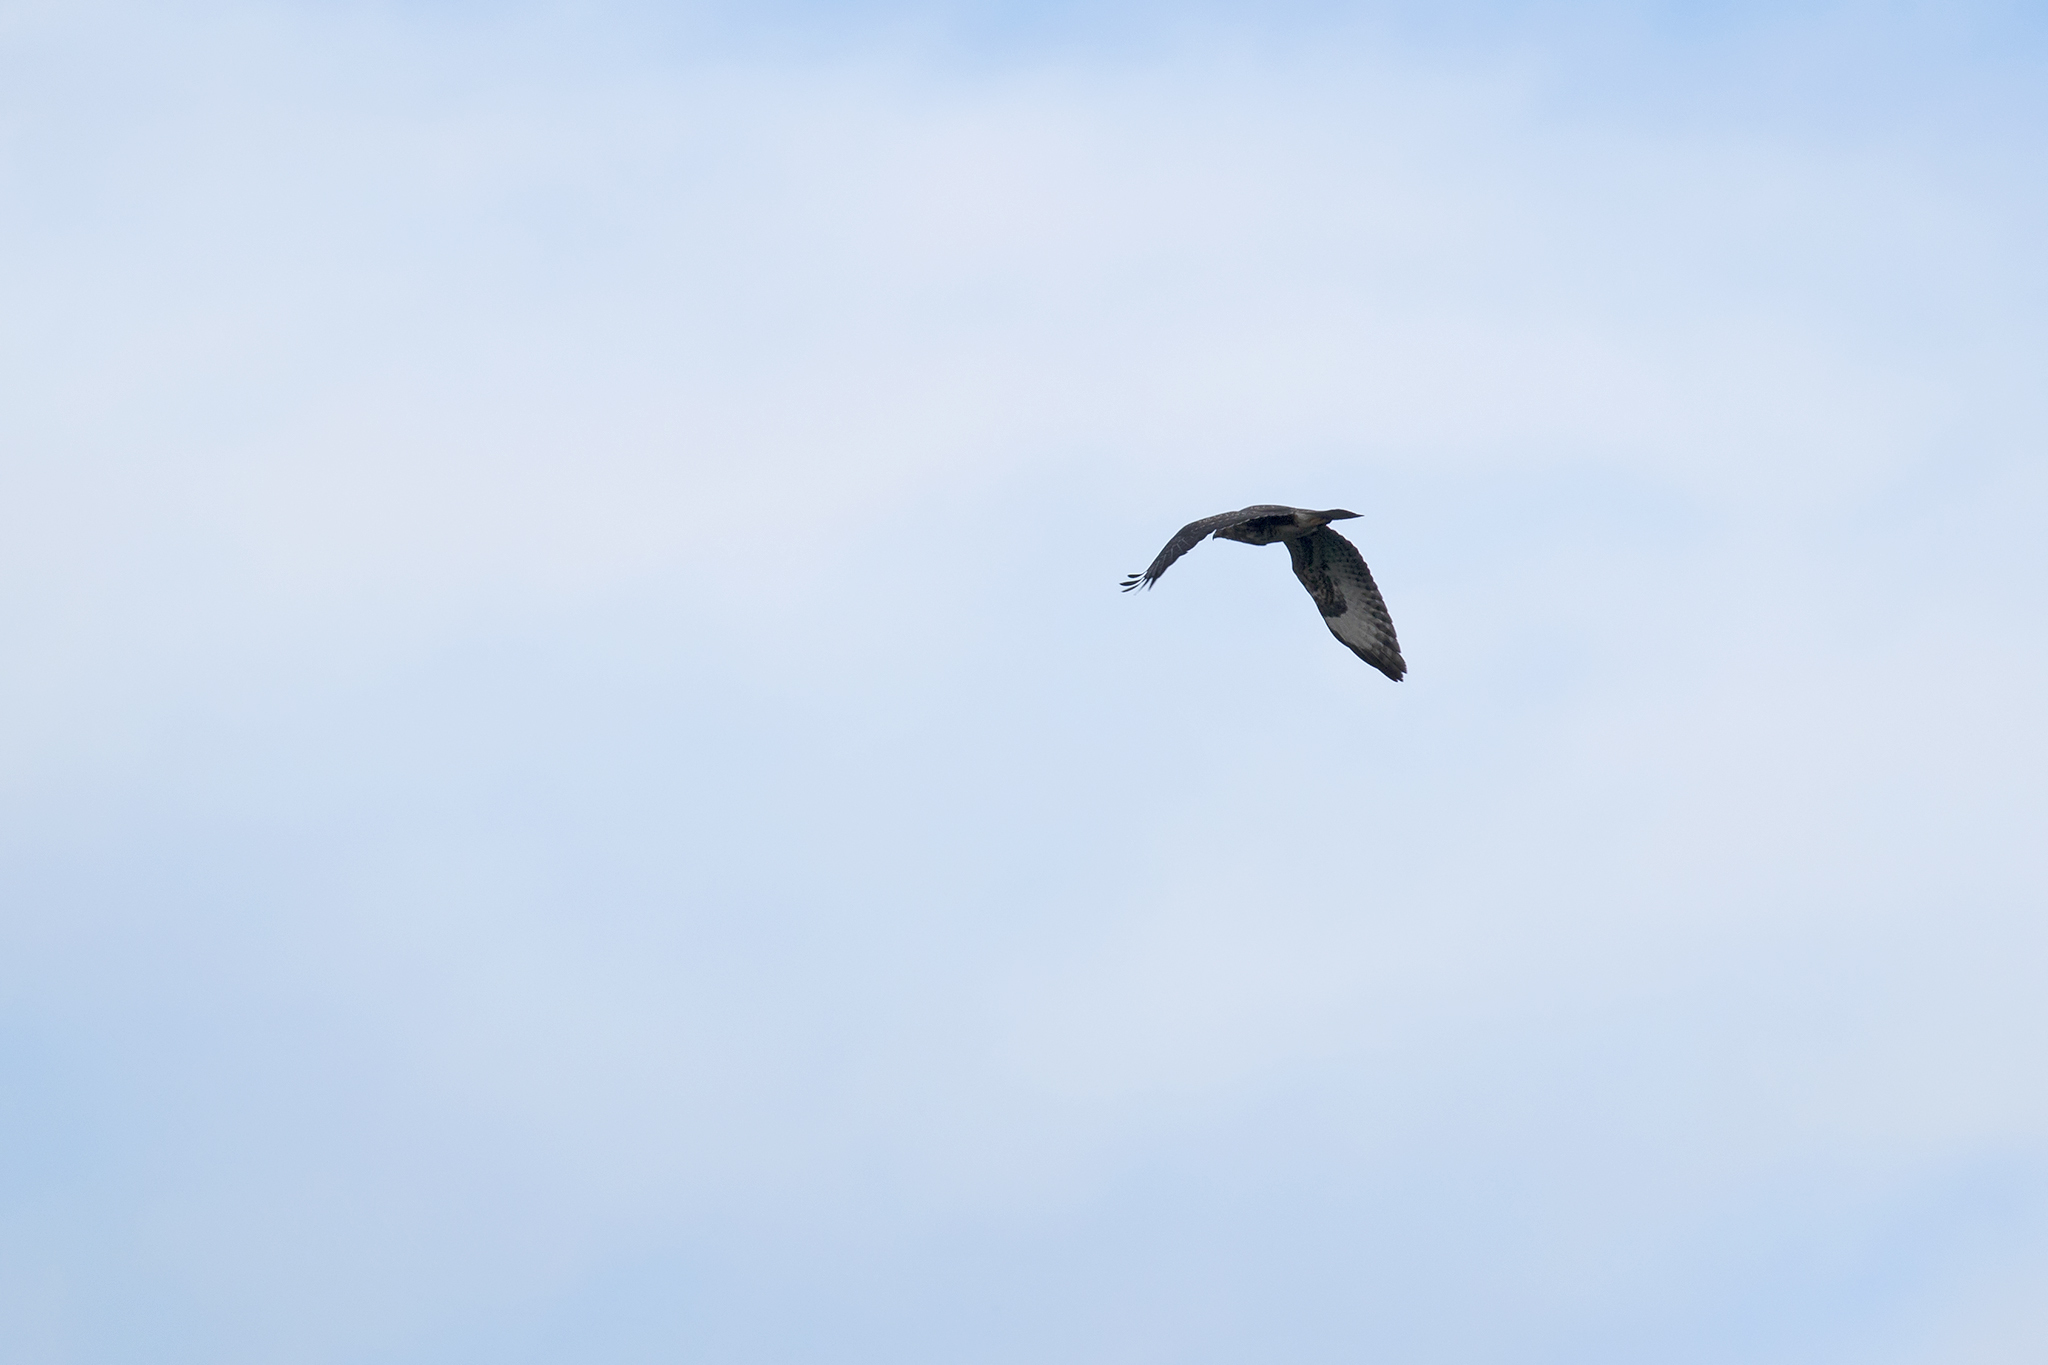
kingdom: Animalia
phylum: Chordata
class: Aves
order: Accipitriformes
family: Accipitridae
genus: Buteo
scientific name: Buteo buteo
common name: Common buzzard
